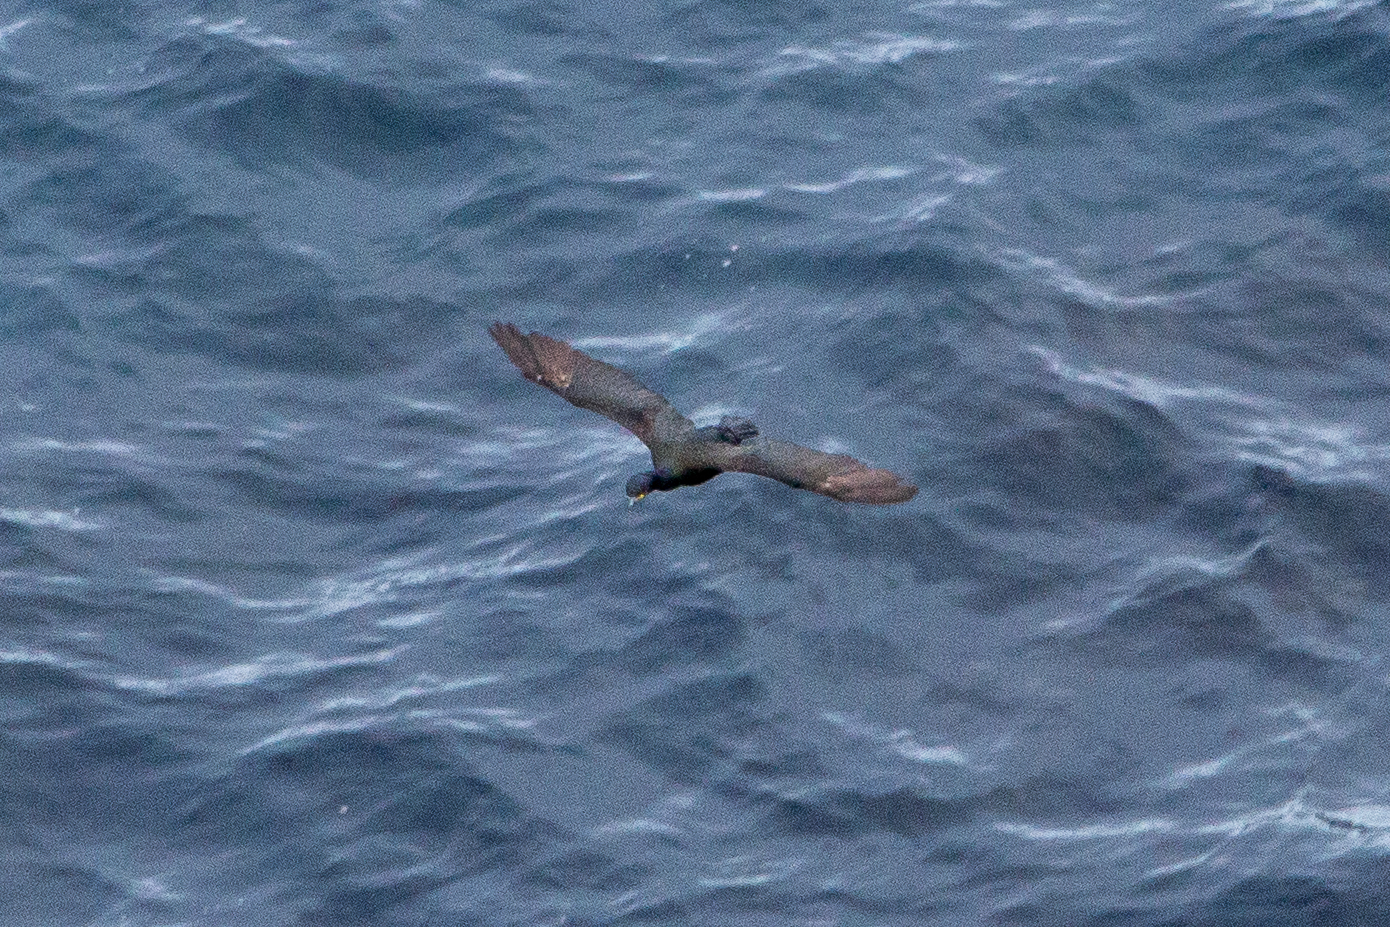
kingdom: Animalia
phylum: Chordata
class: Aves
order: Suliformes
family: Phalacrocoracidae
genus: Phalacrocorax
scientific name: Phalacrocorax aristotelis
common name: European shag
